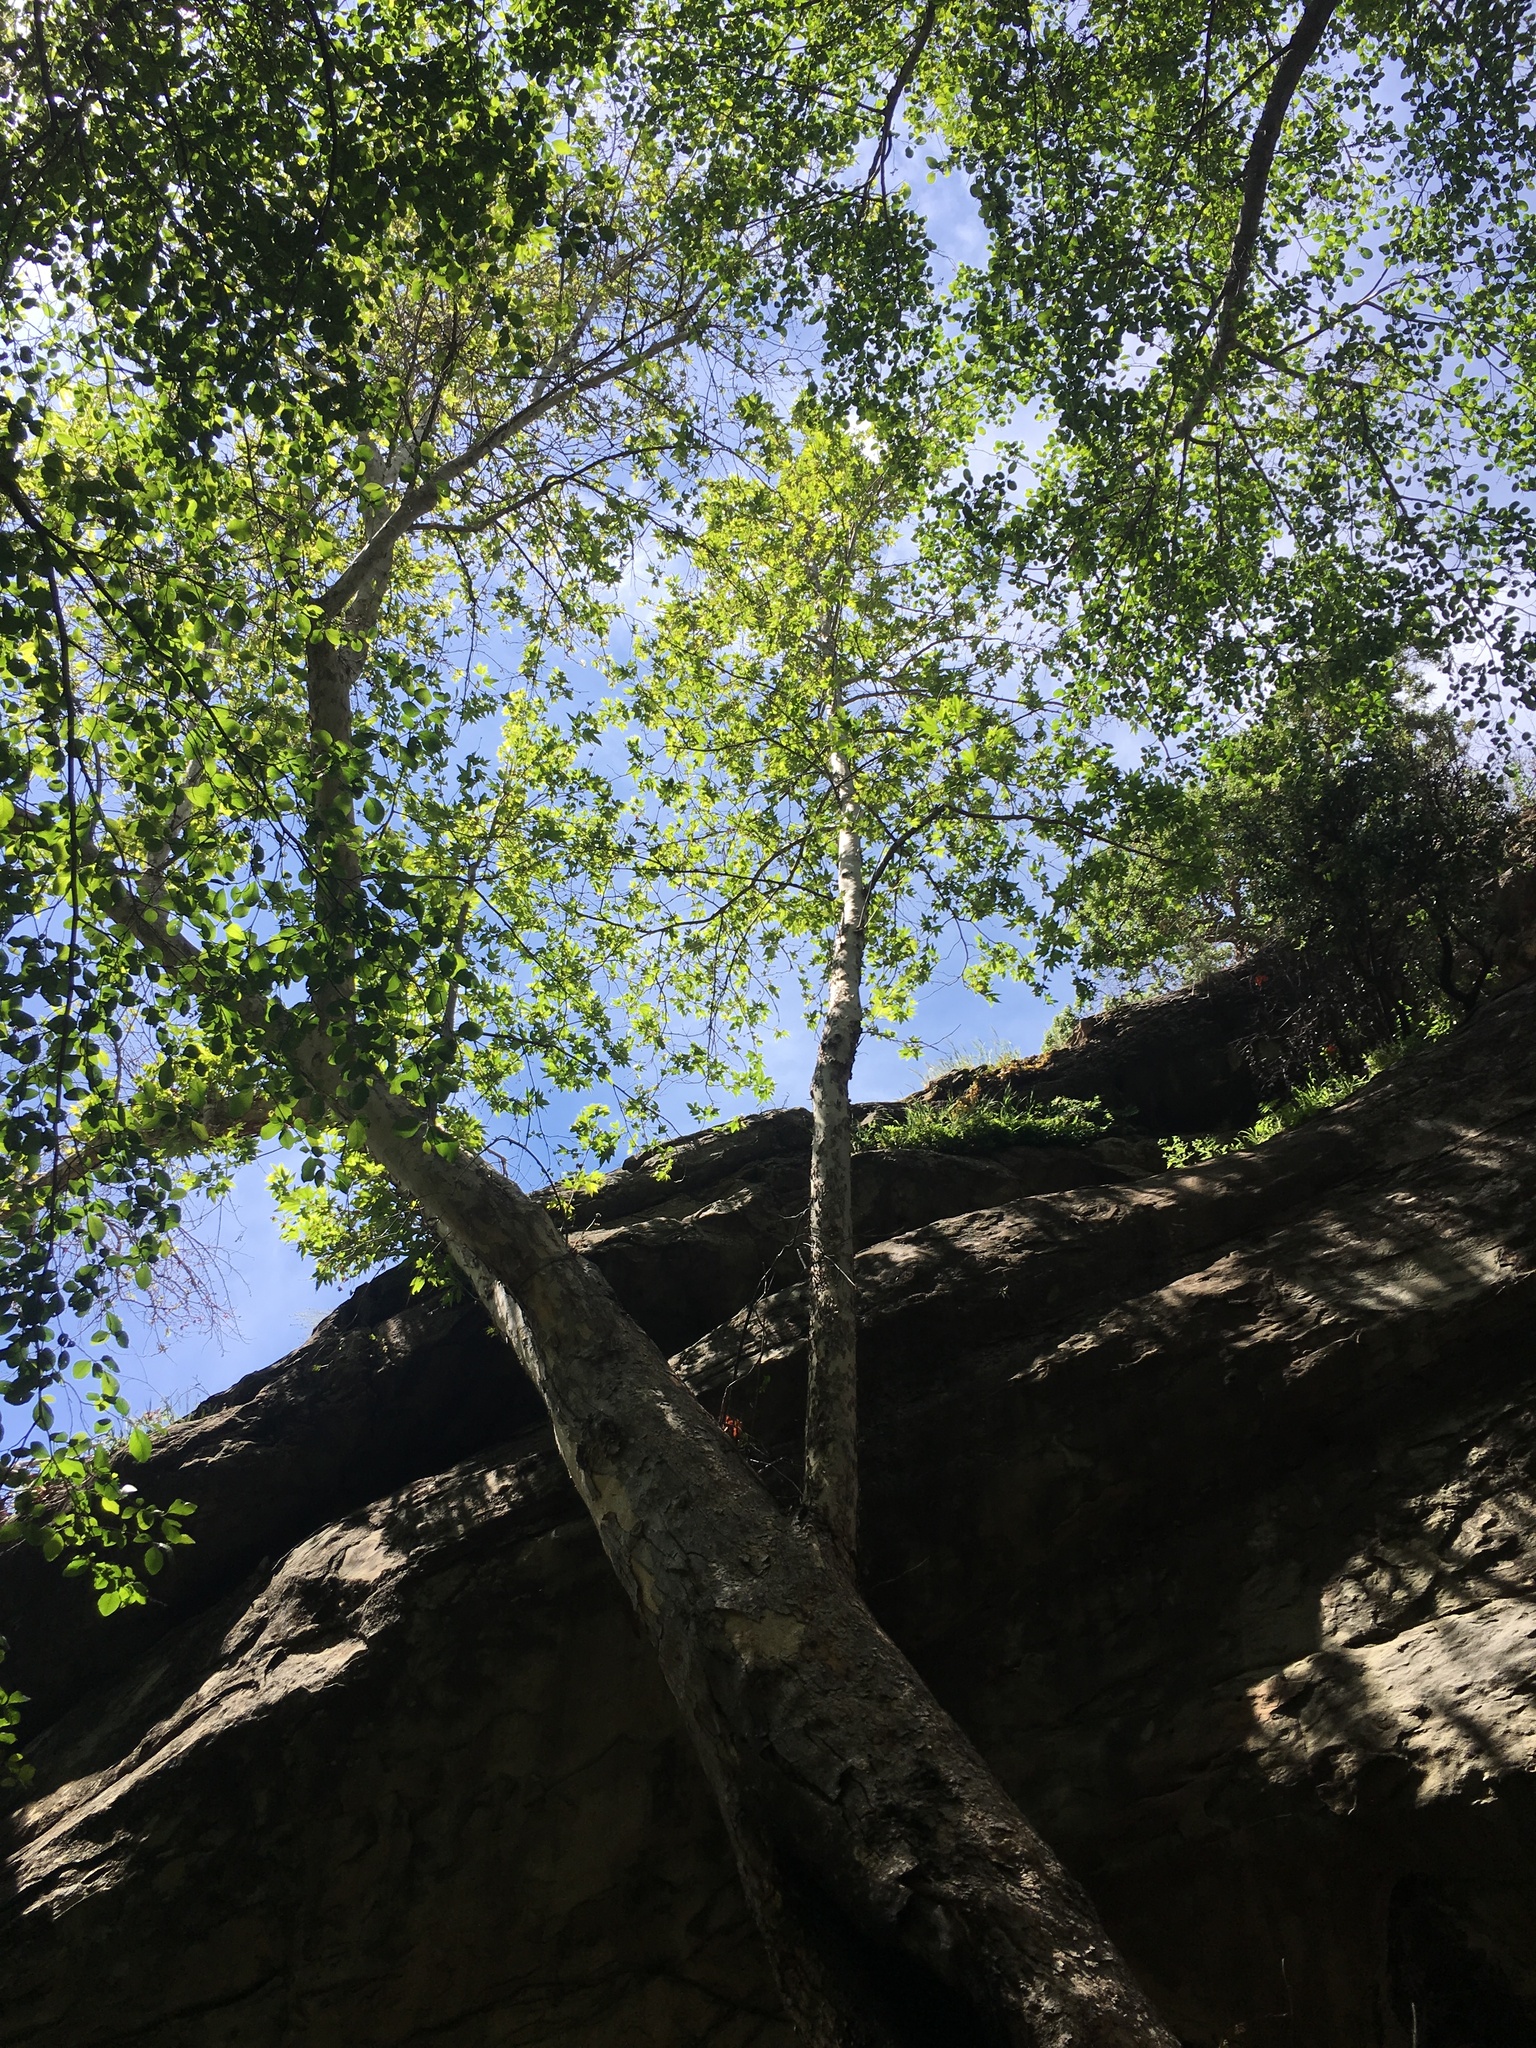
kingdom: Plantae
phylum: Tracheophyta
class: Magnoliopsida
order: Proteales
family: Platanaceae
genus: Platanus
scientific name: Platanus racemosa
